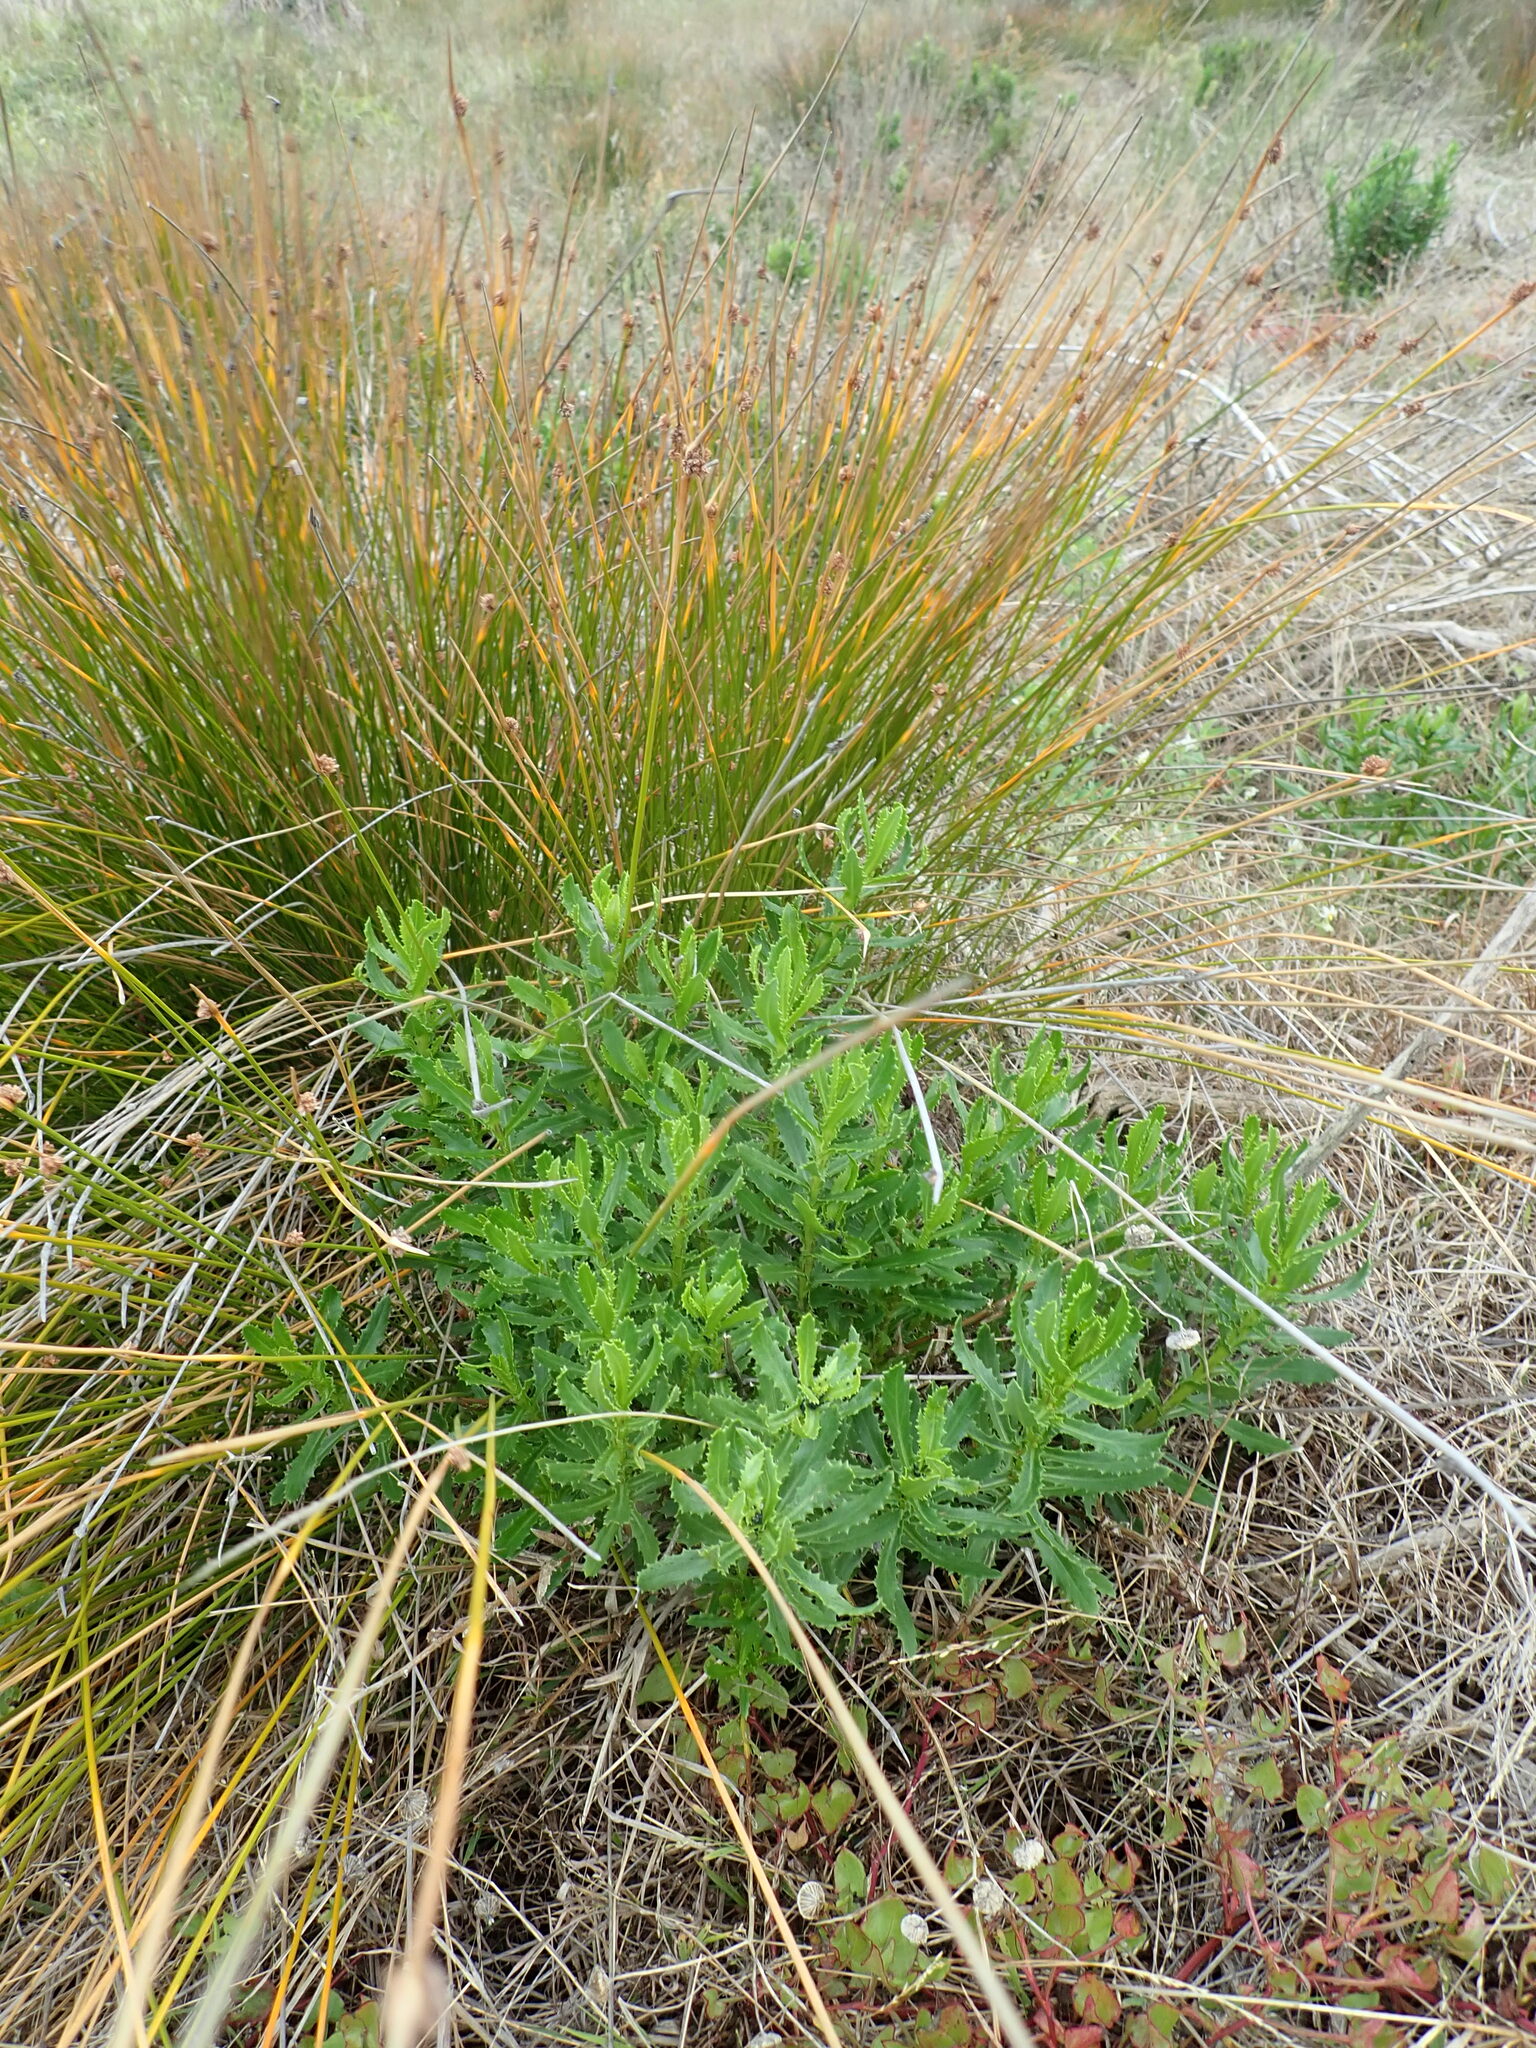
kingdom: Plantae
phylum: Tracheophyta
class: Magnoliopsida
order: Asterales
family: Asteraceae
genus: Senecio
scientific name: Senecio glastifolius
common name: Woad-leaved ragwort
